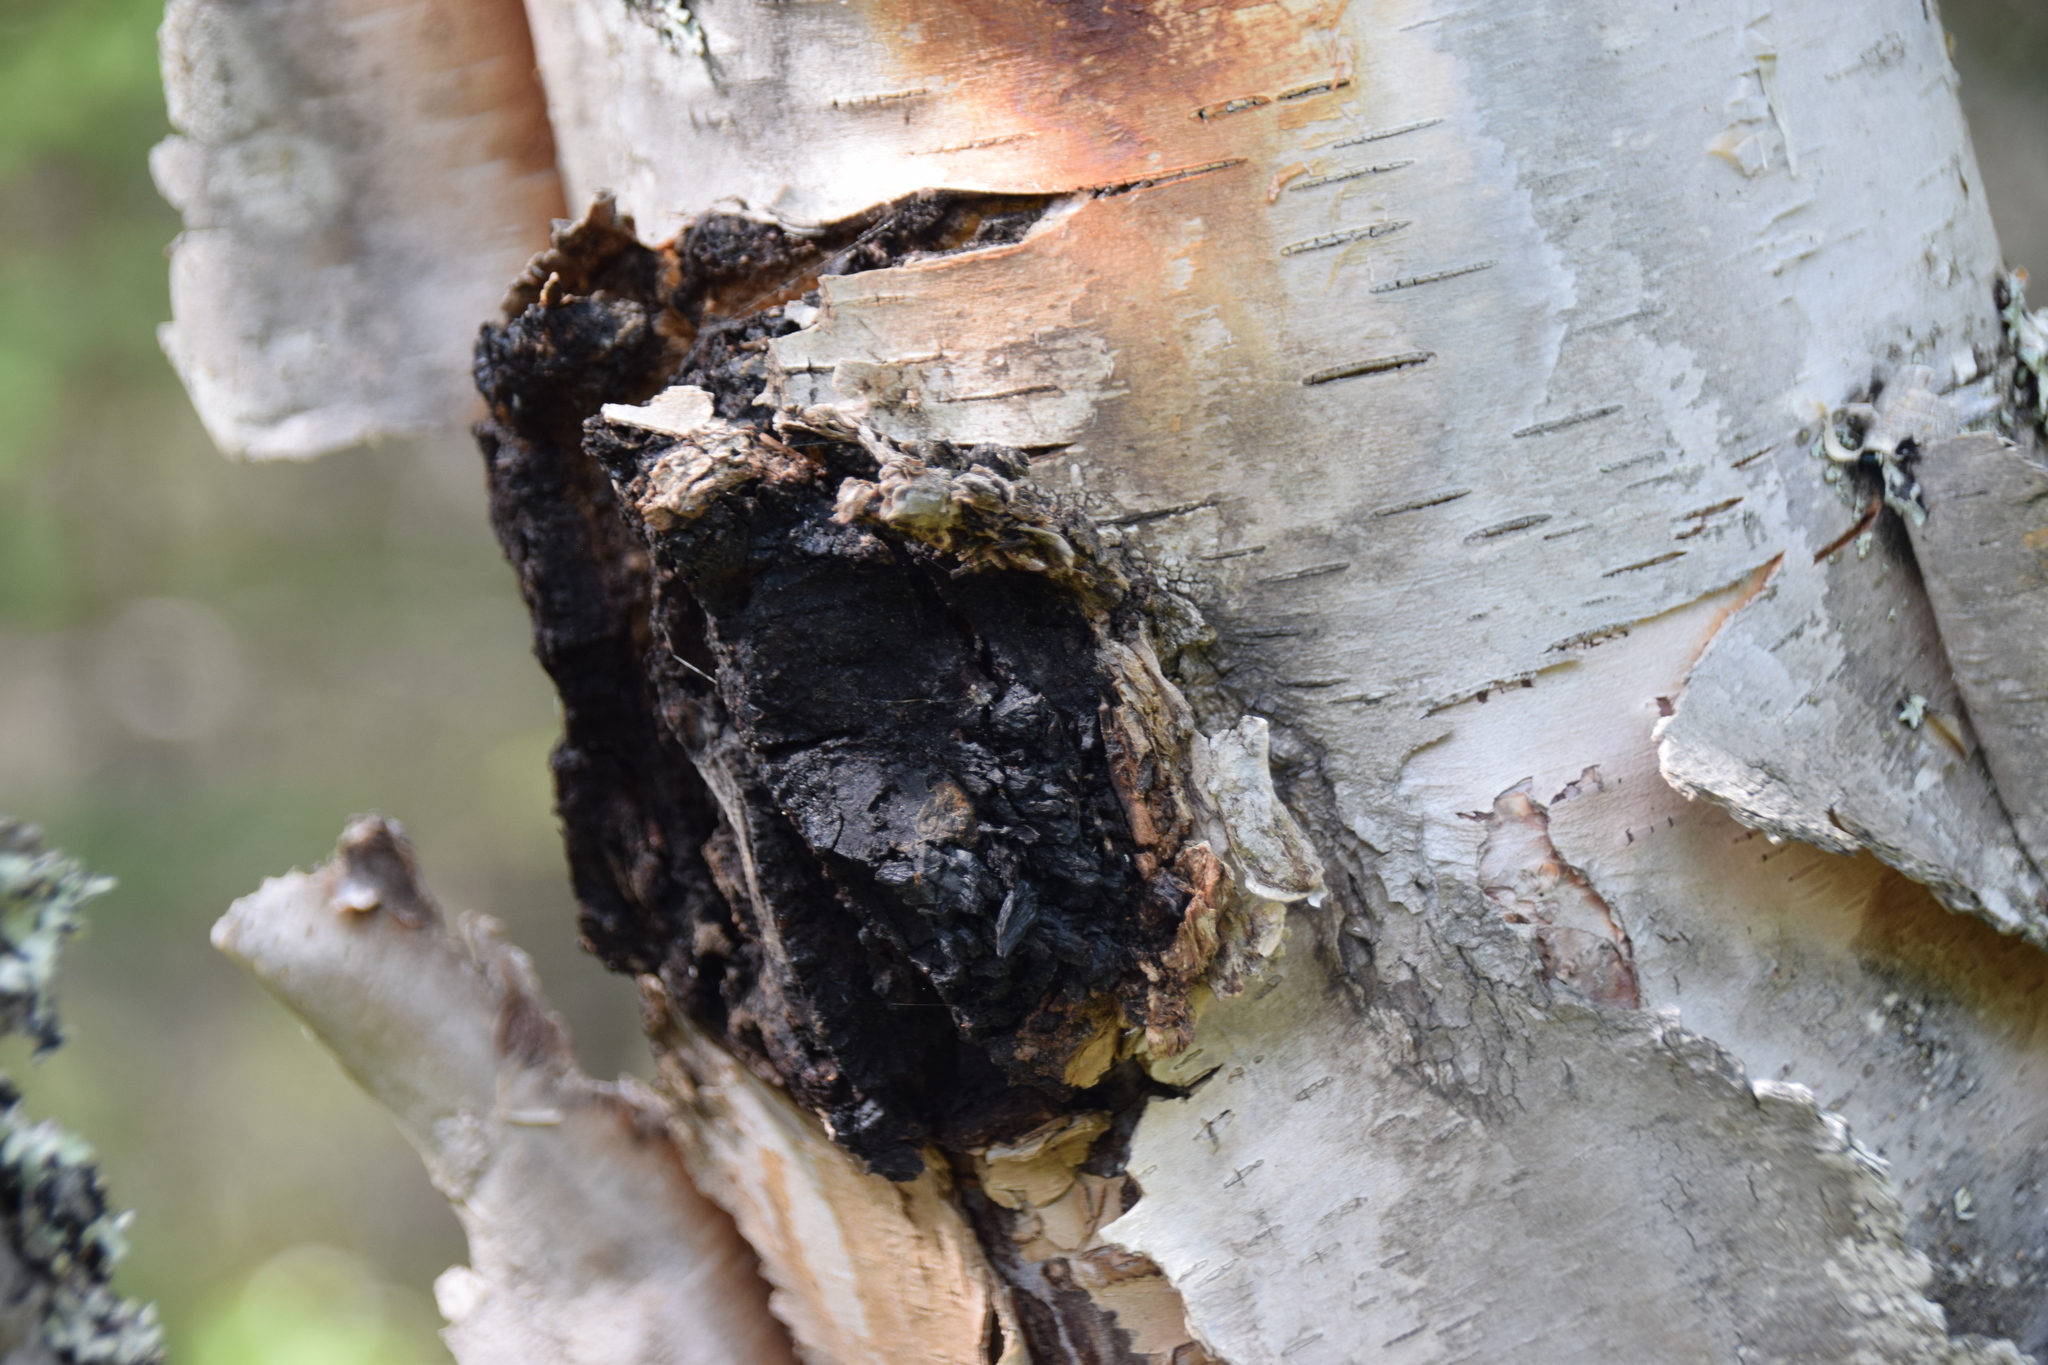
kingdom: Fungi
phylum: Basidiomycota
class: Agaricomycetes
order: Hymenochaetales
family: Hymenochaetaceae
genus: Inonotus
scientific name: Inonotus obliquus
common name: Chaga
